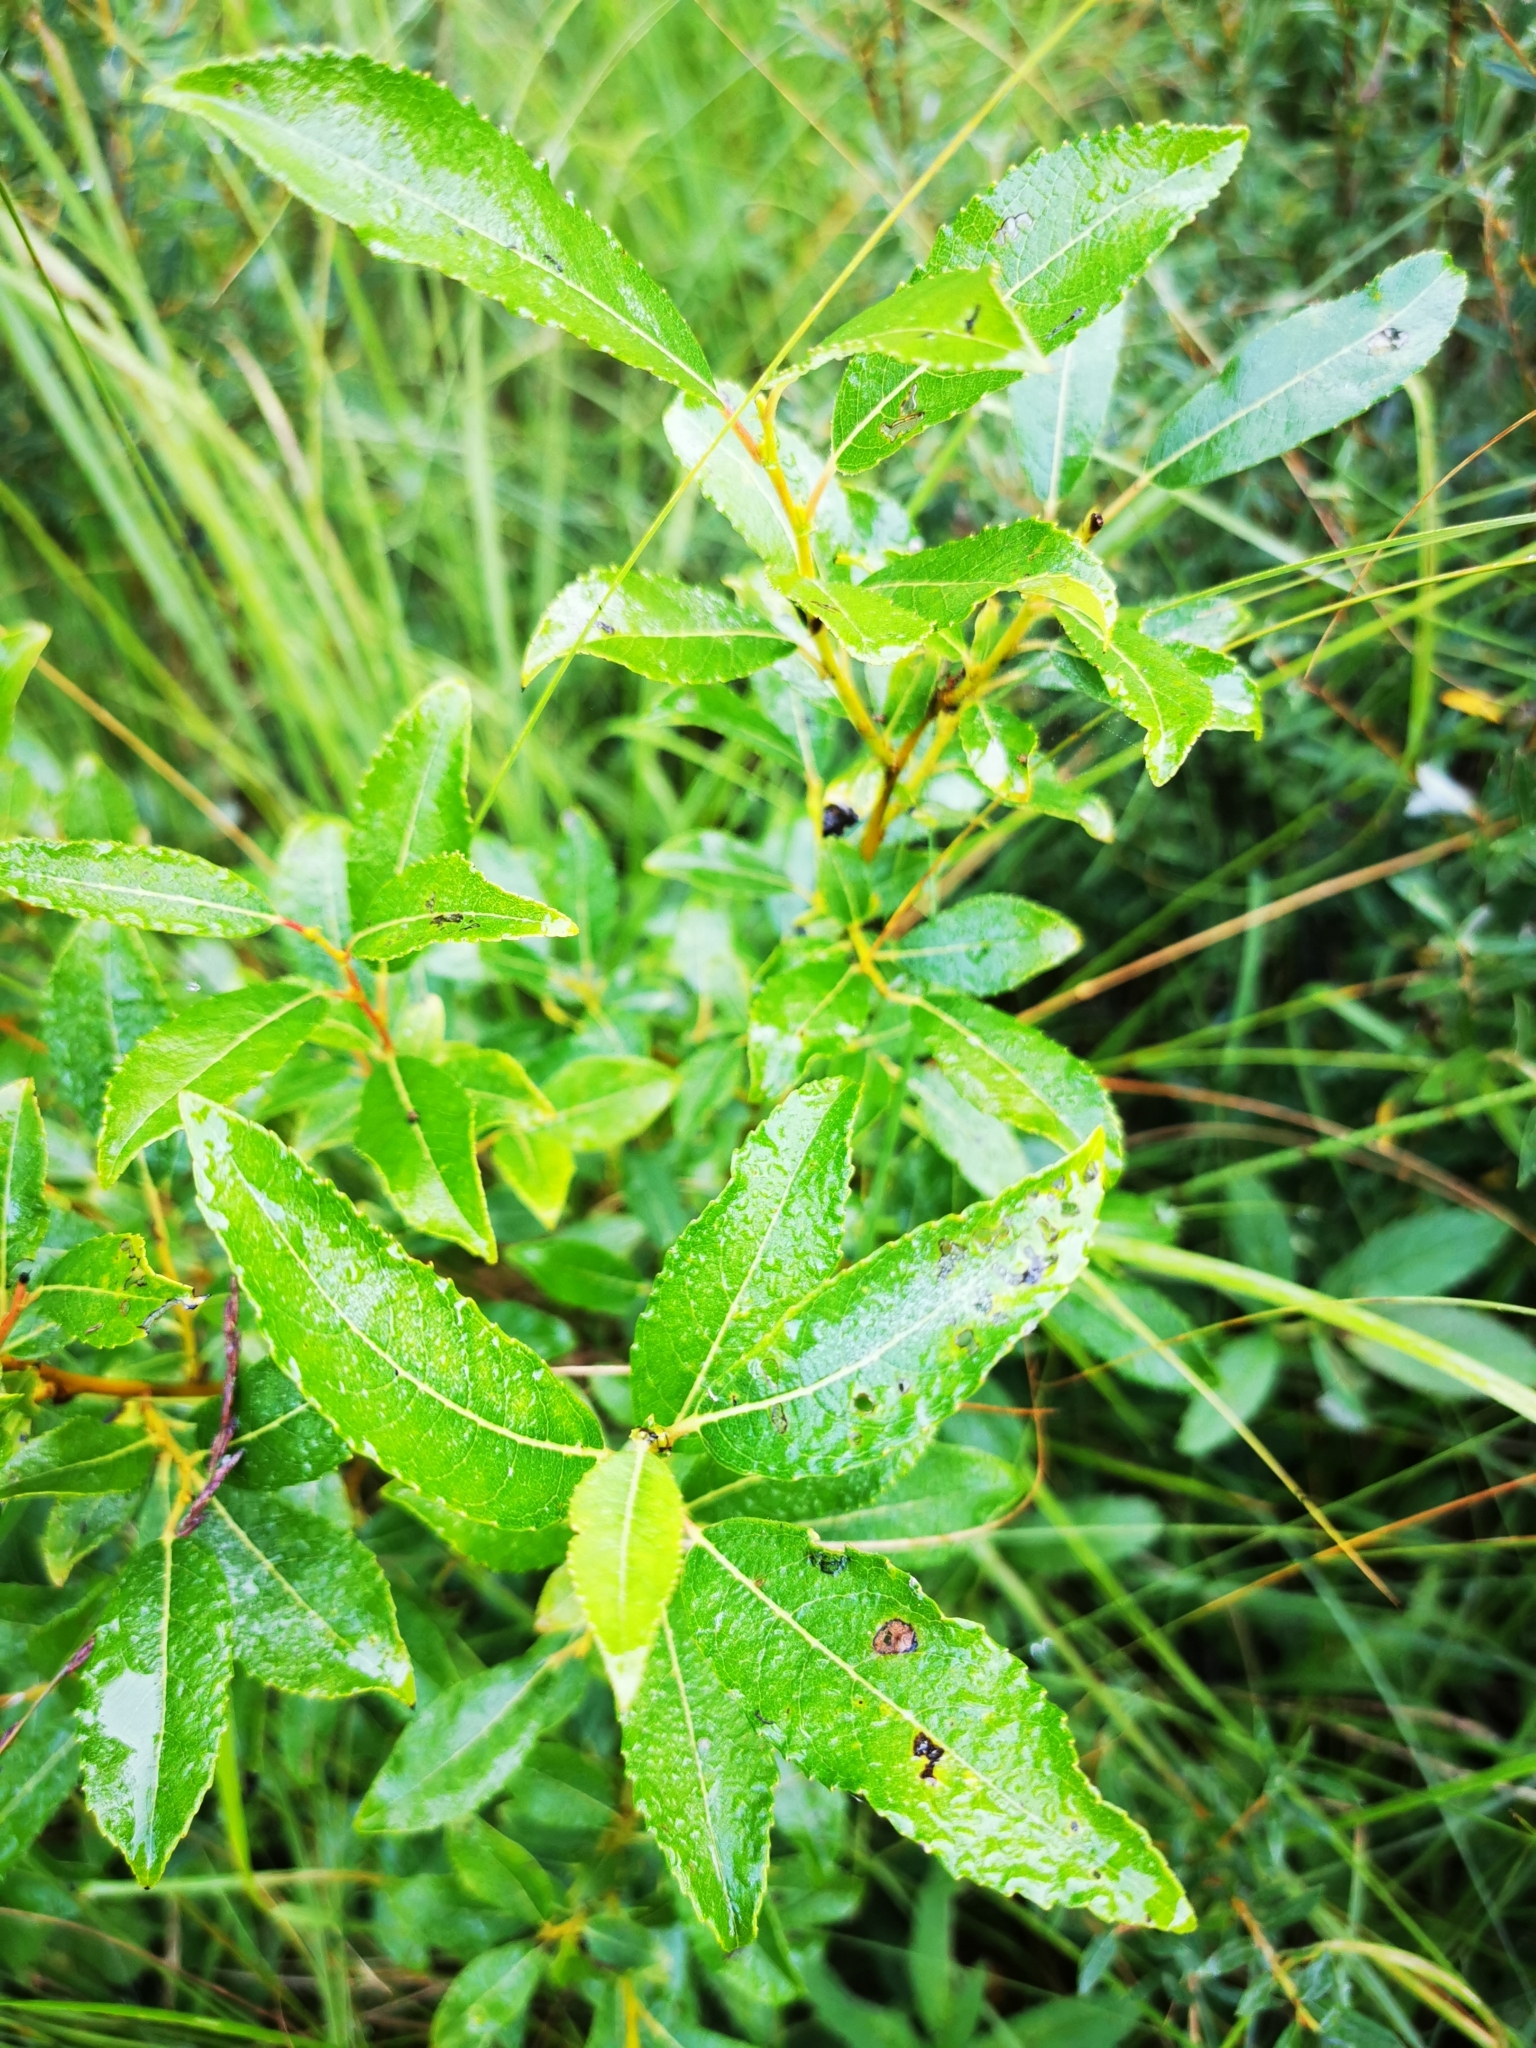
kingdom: Plantae
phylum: Tracheophyta
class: Magnoliopsida
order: Malpighiales
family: Salicaceae
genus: Salix
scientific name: Salix myrsinifolia
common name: Dark-leaved willow
